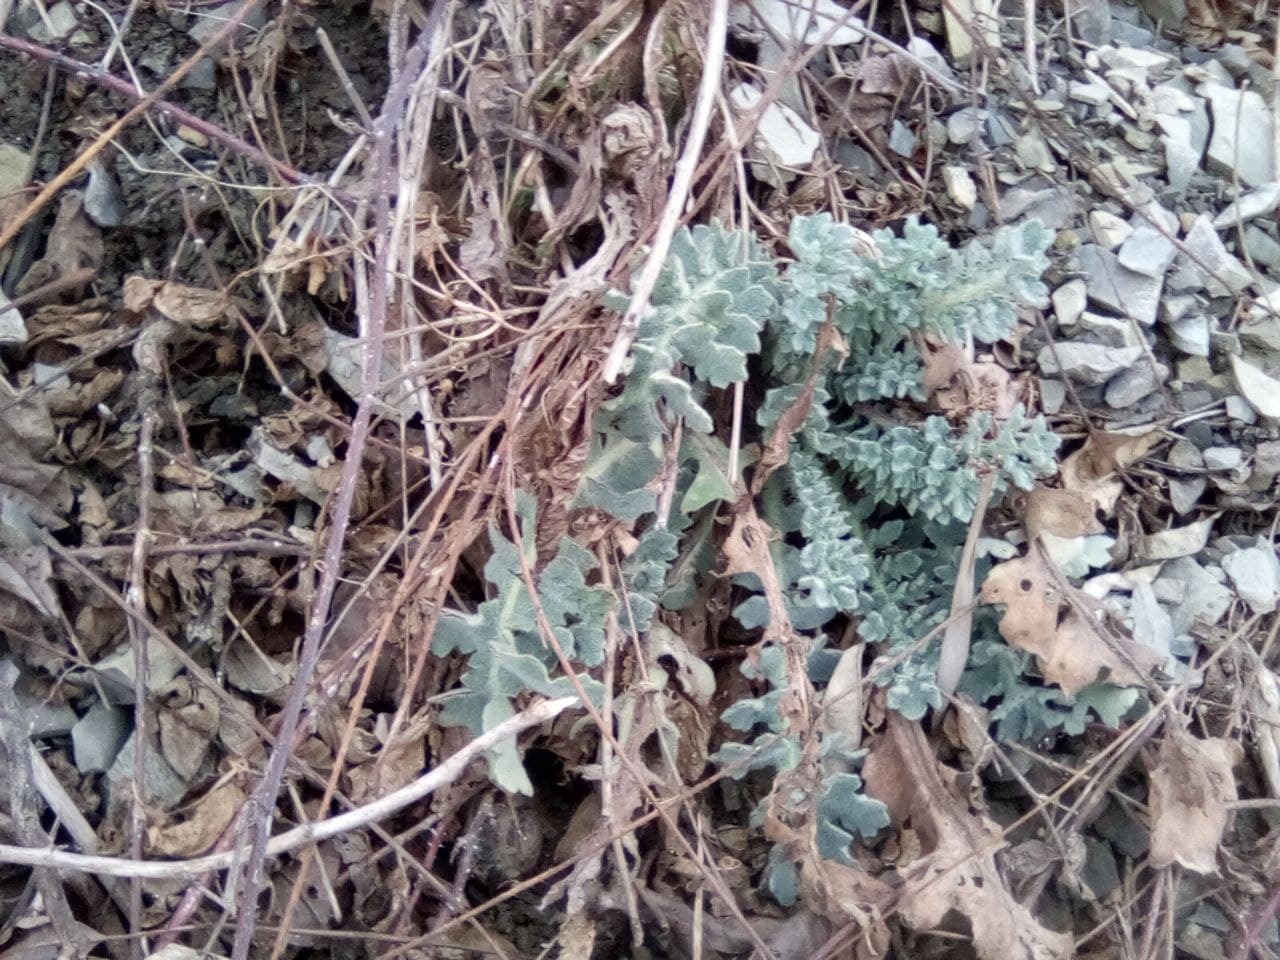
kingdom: Plantae
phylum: Tracheophyta
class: Magnoliopsida
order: Ranunculales
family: Papaveraceae
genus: Glaucium
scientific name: Glaucium flavum
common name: Yellow horned-poppy
